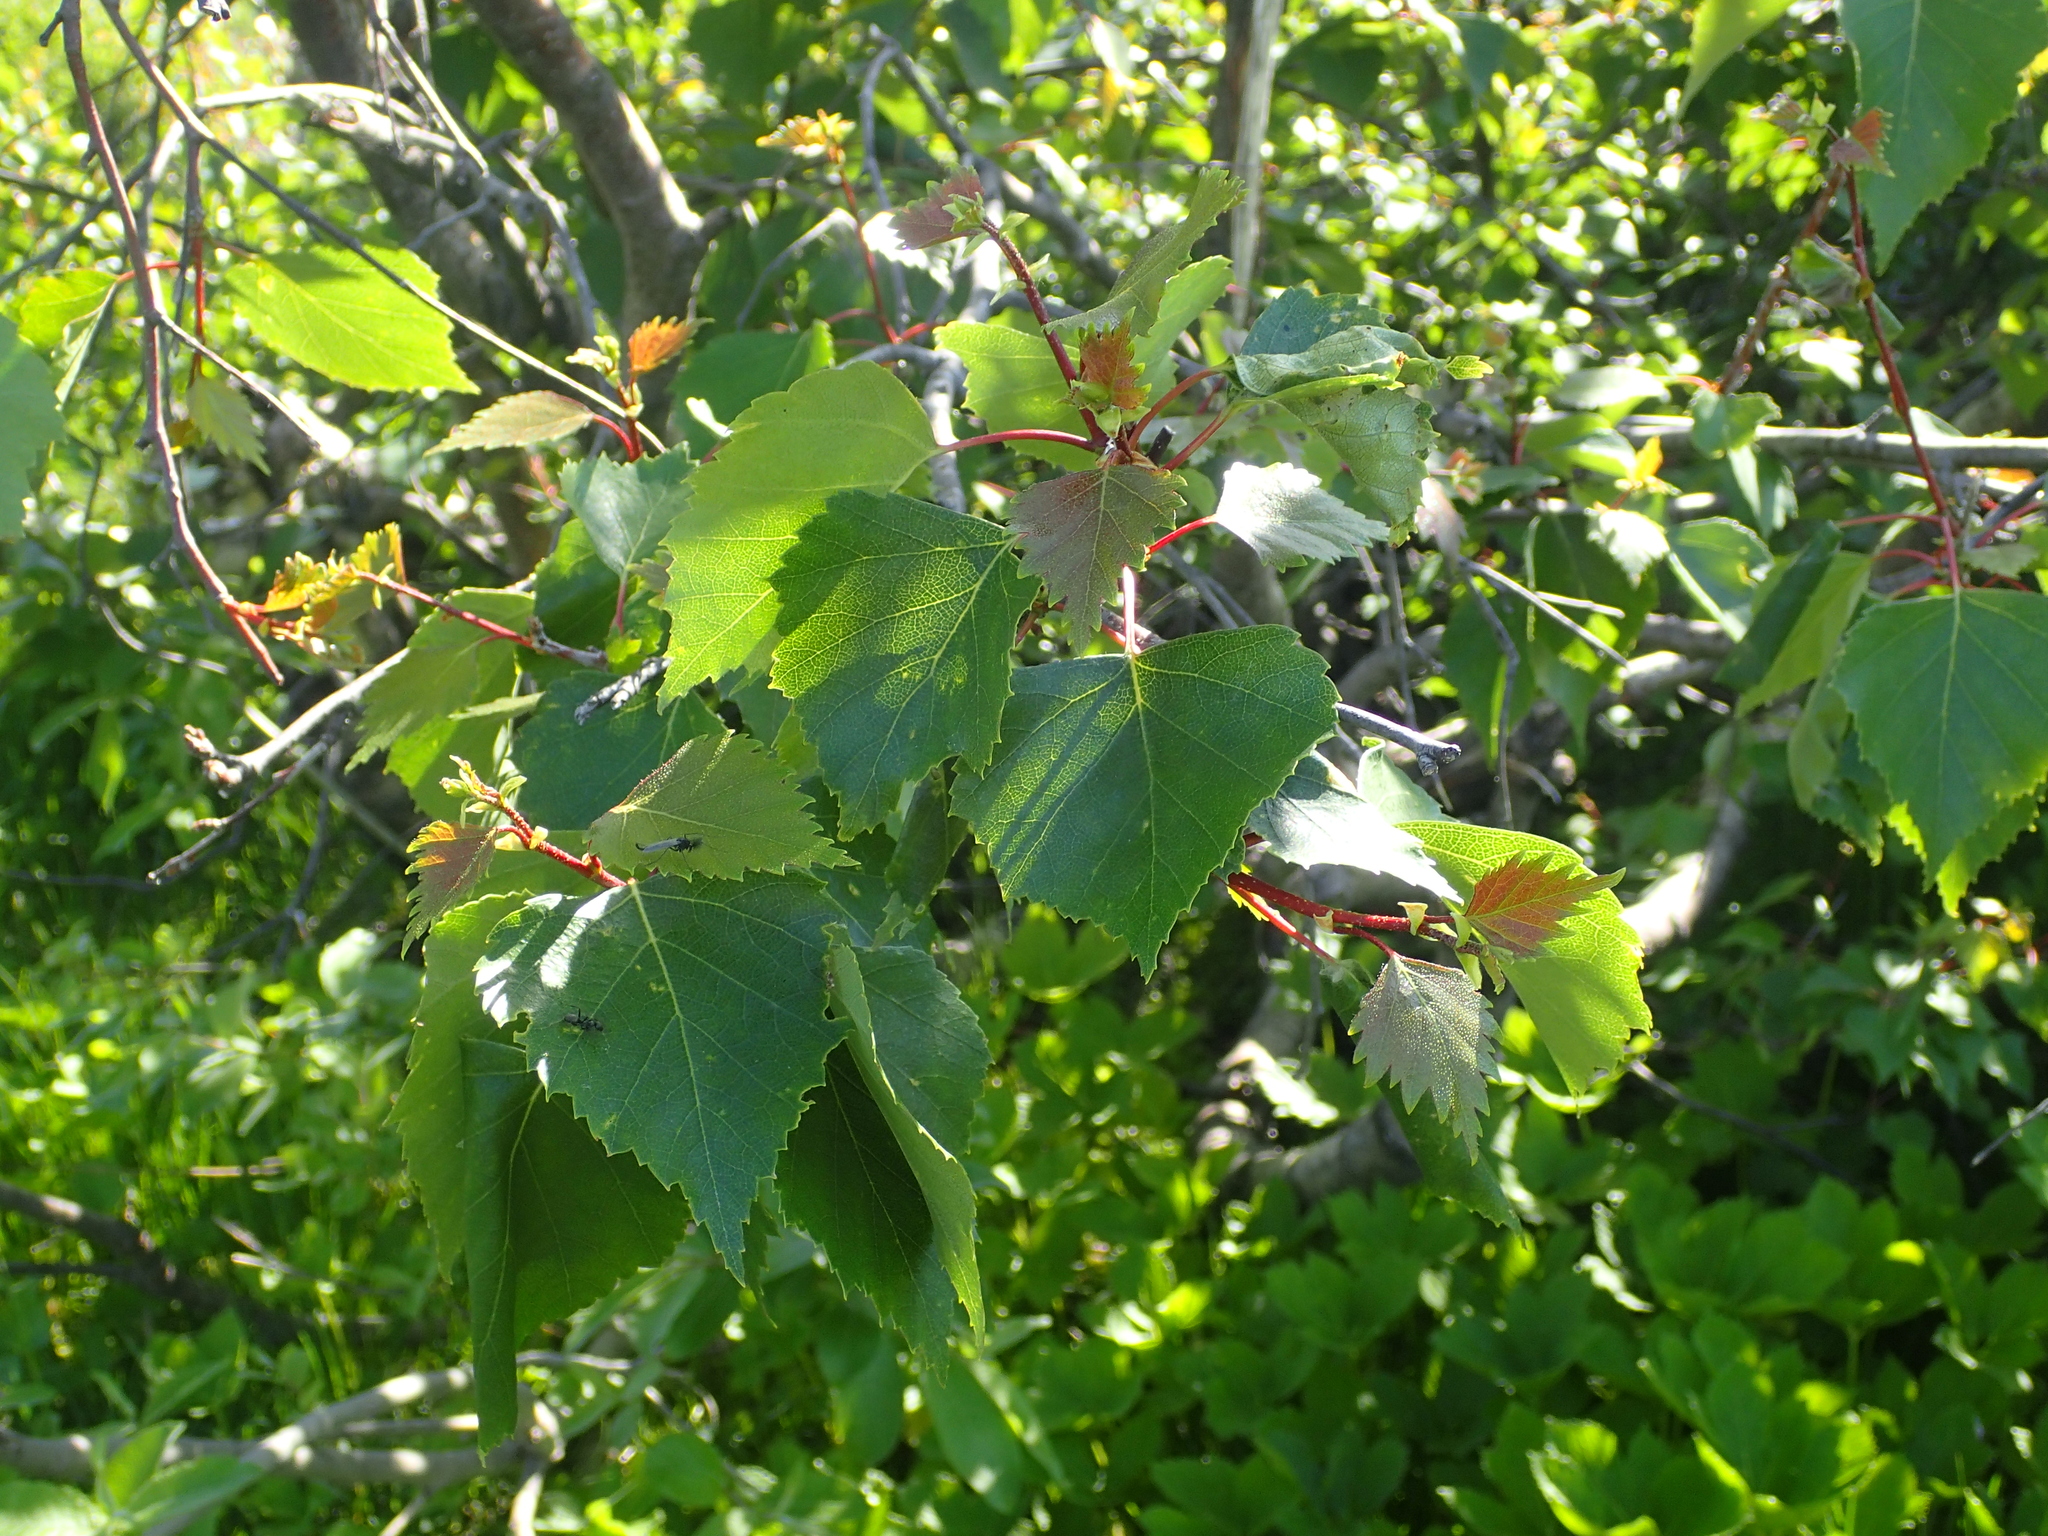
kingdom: Plantae
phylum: Tracheophyta
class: Magnoliopsida
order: Fagales
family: Betulaceae
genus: Betula
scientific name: Betula pendula
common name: Silver birch
